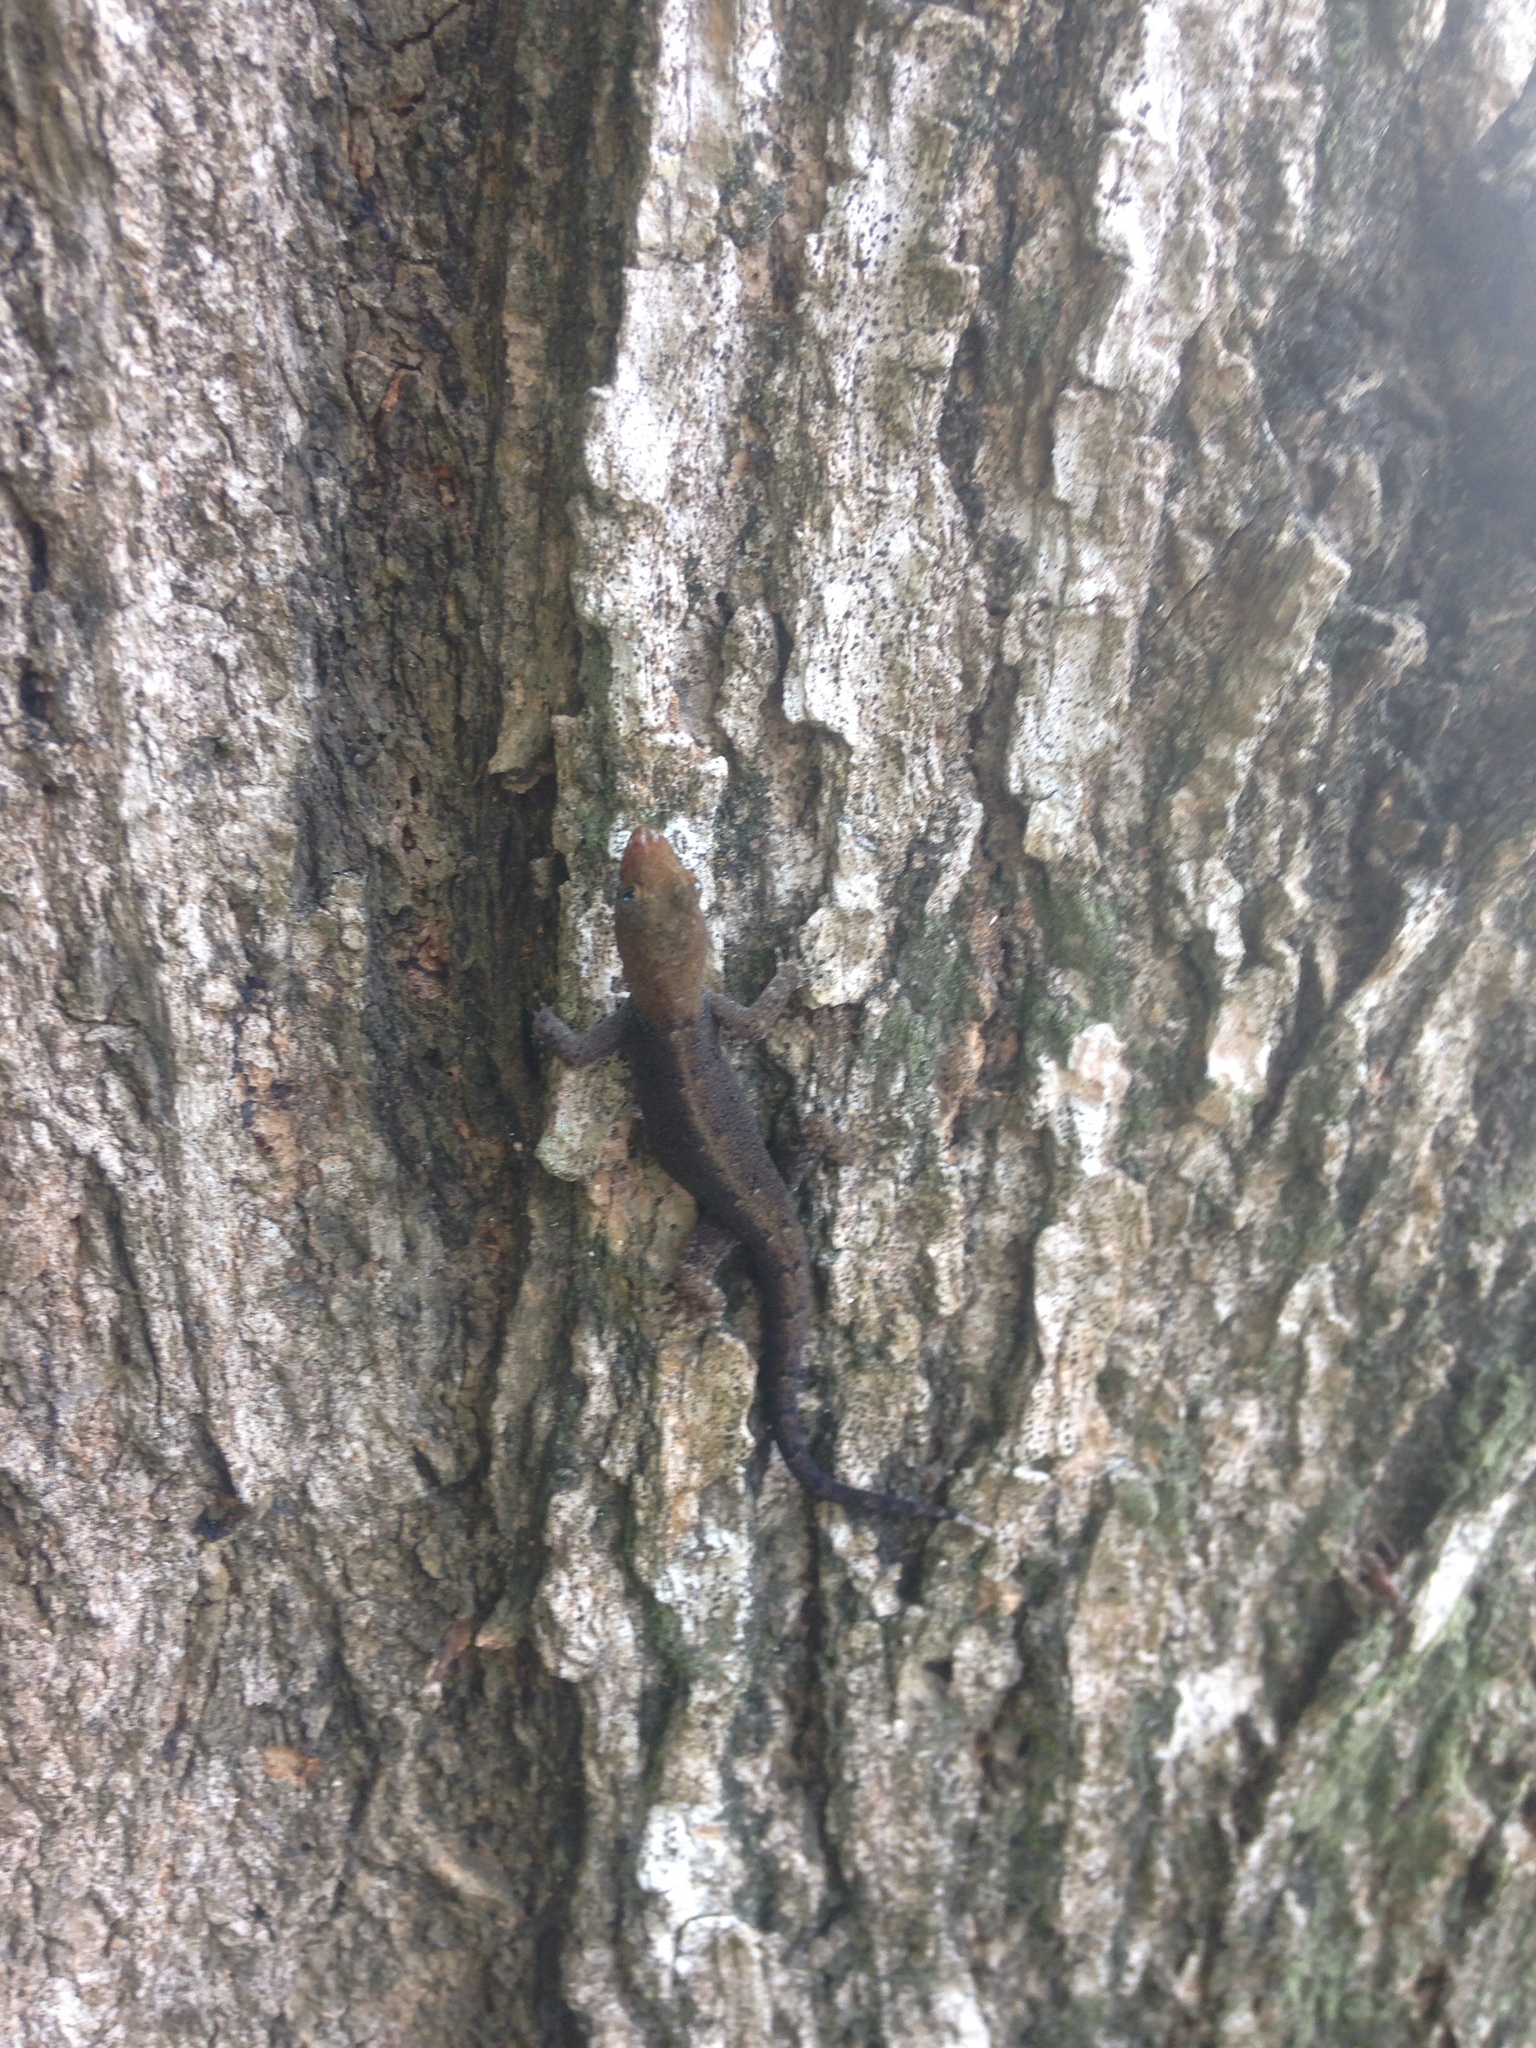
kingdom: Animalia
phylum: Chordata
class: Squamata
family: Sphaerodactylidae
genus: Gonatodes
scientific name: Gonatodes albogularis
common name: Yellow-headed gecko
